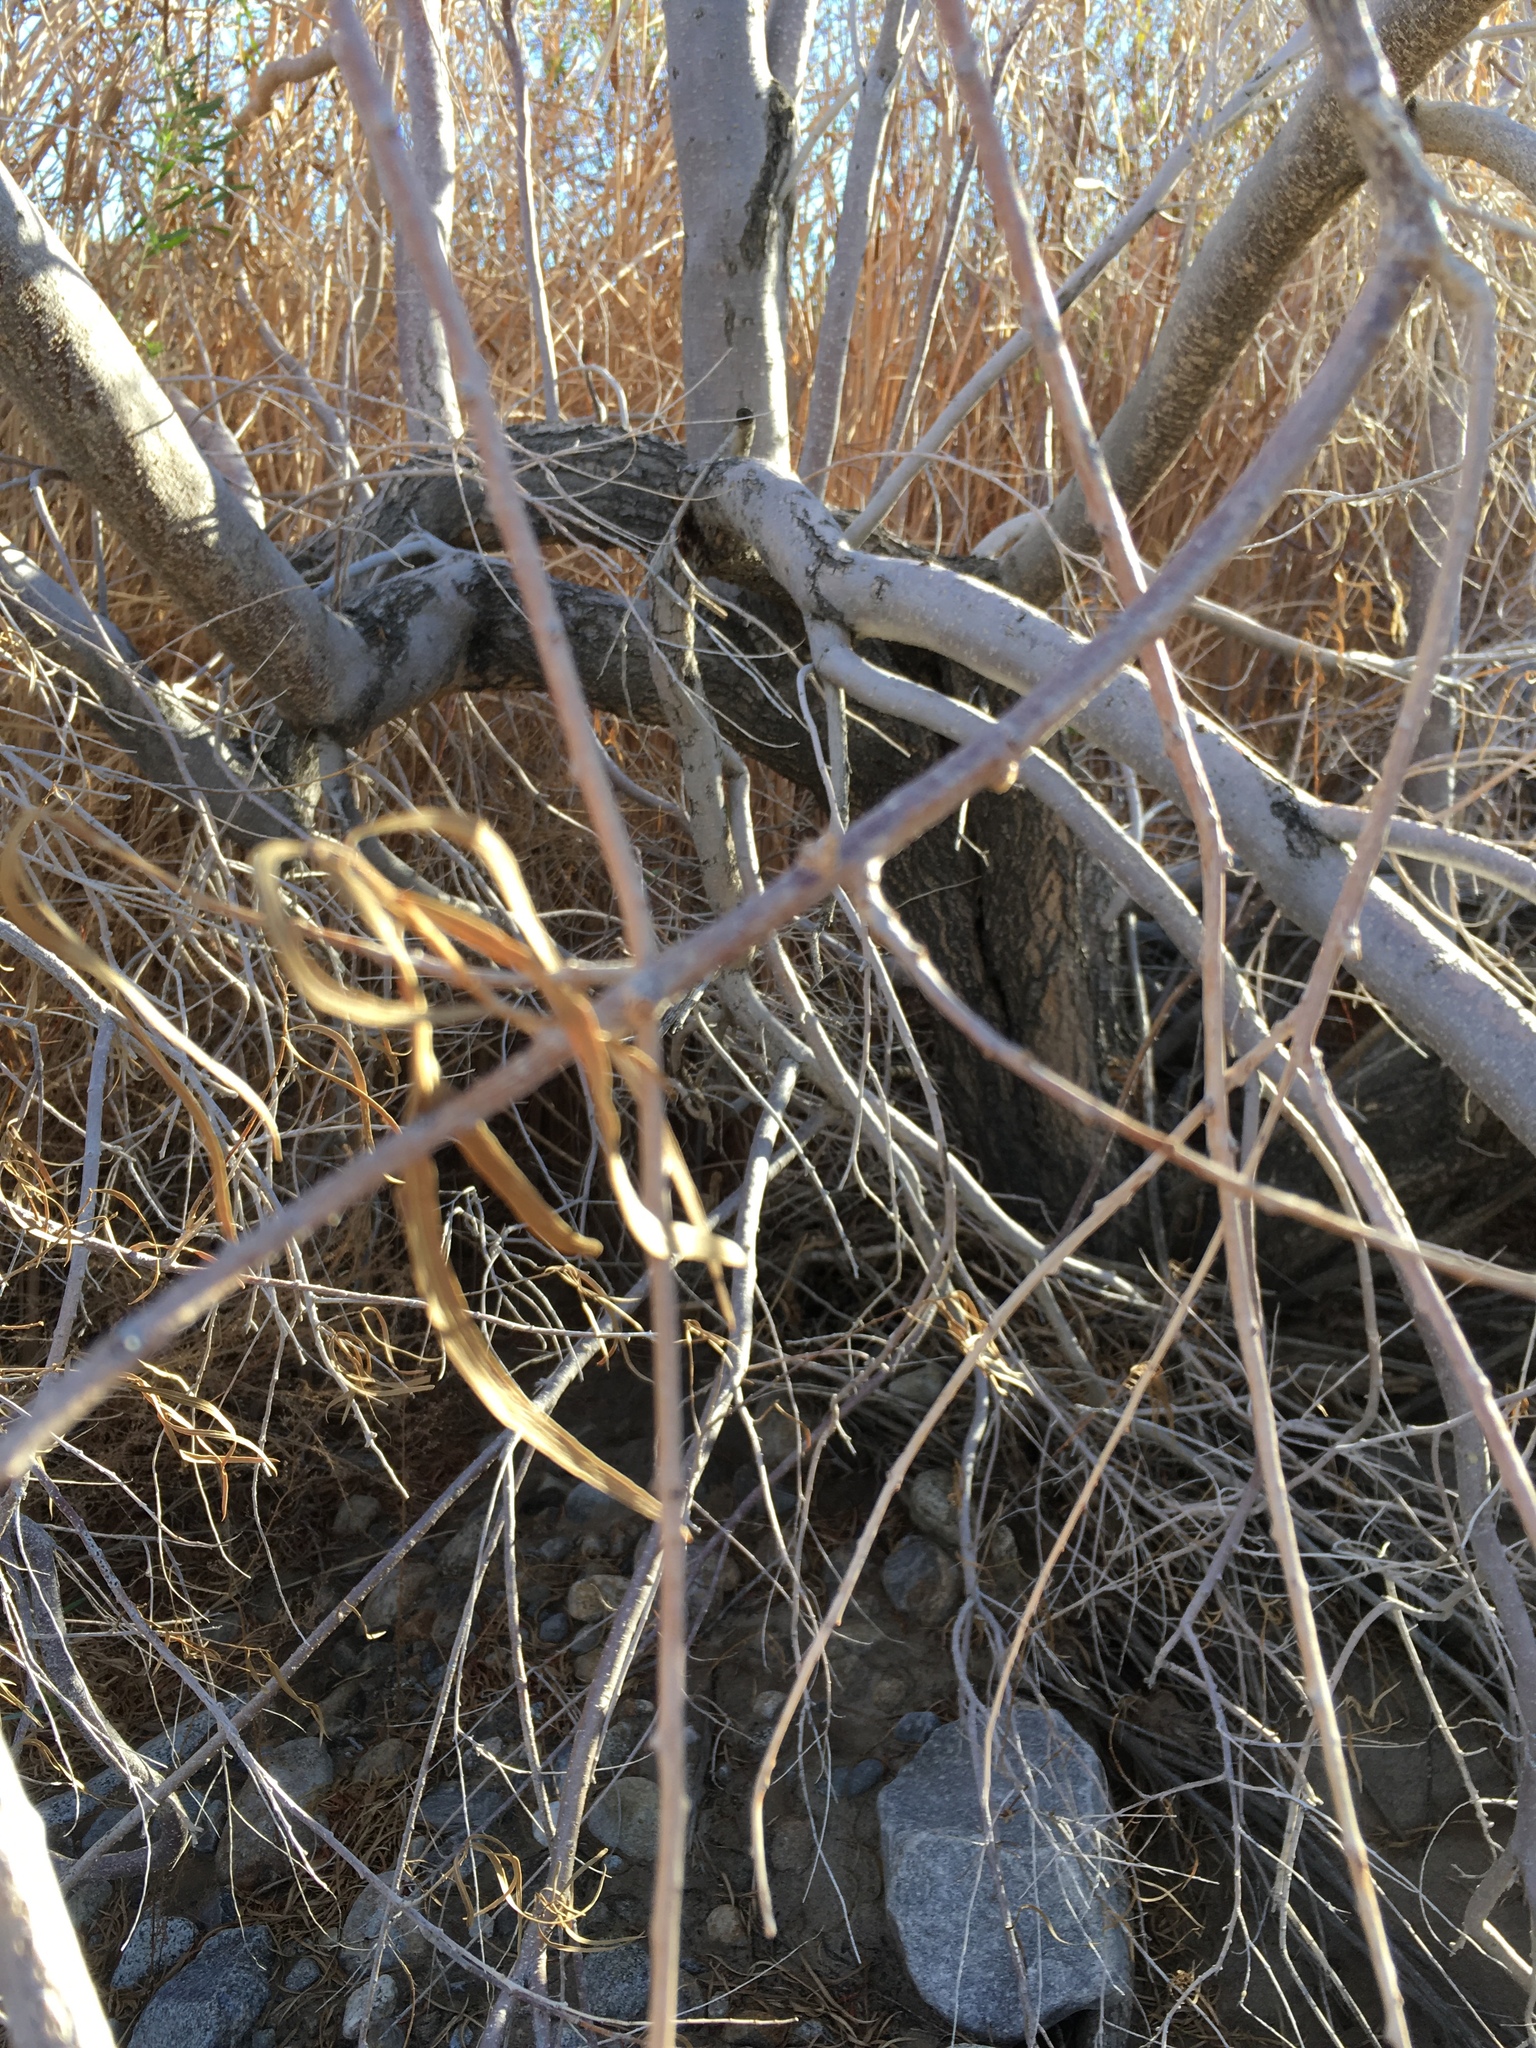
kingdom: Plantae
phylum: Tracheophyta
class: Magnoliopsida
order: Lamiales
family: Bignoniaceae
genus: Chilopsis
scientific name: Chilopsis linearis
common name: Desert-willow
